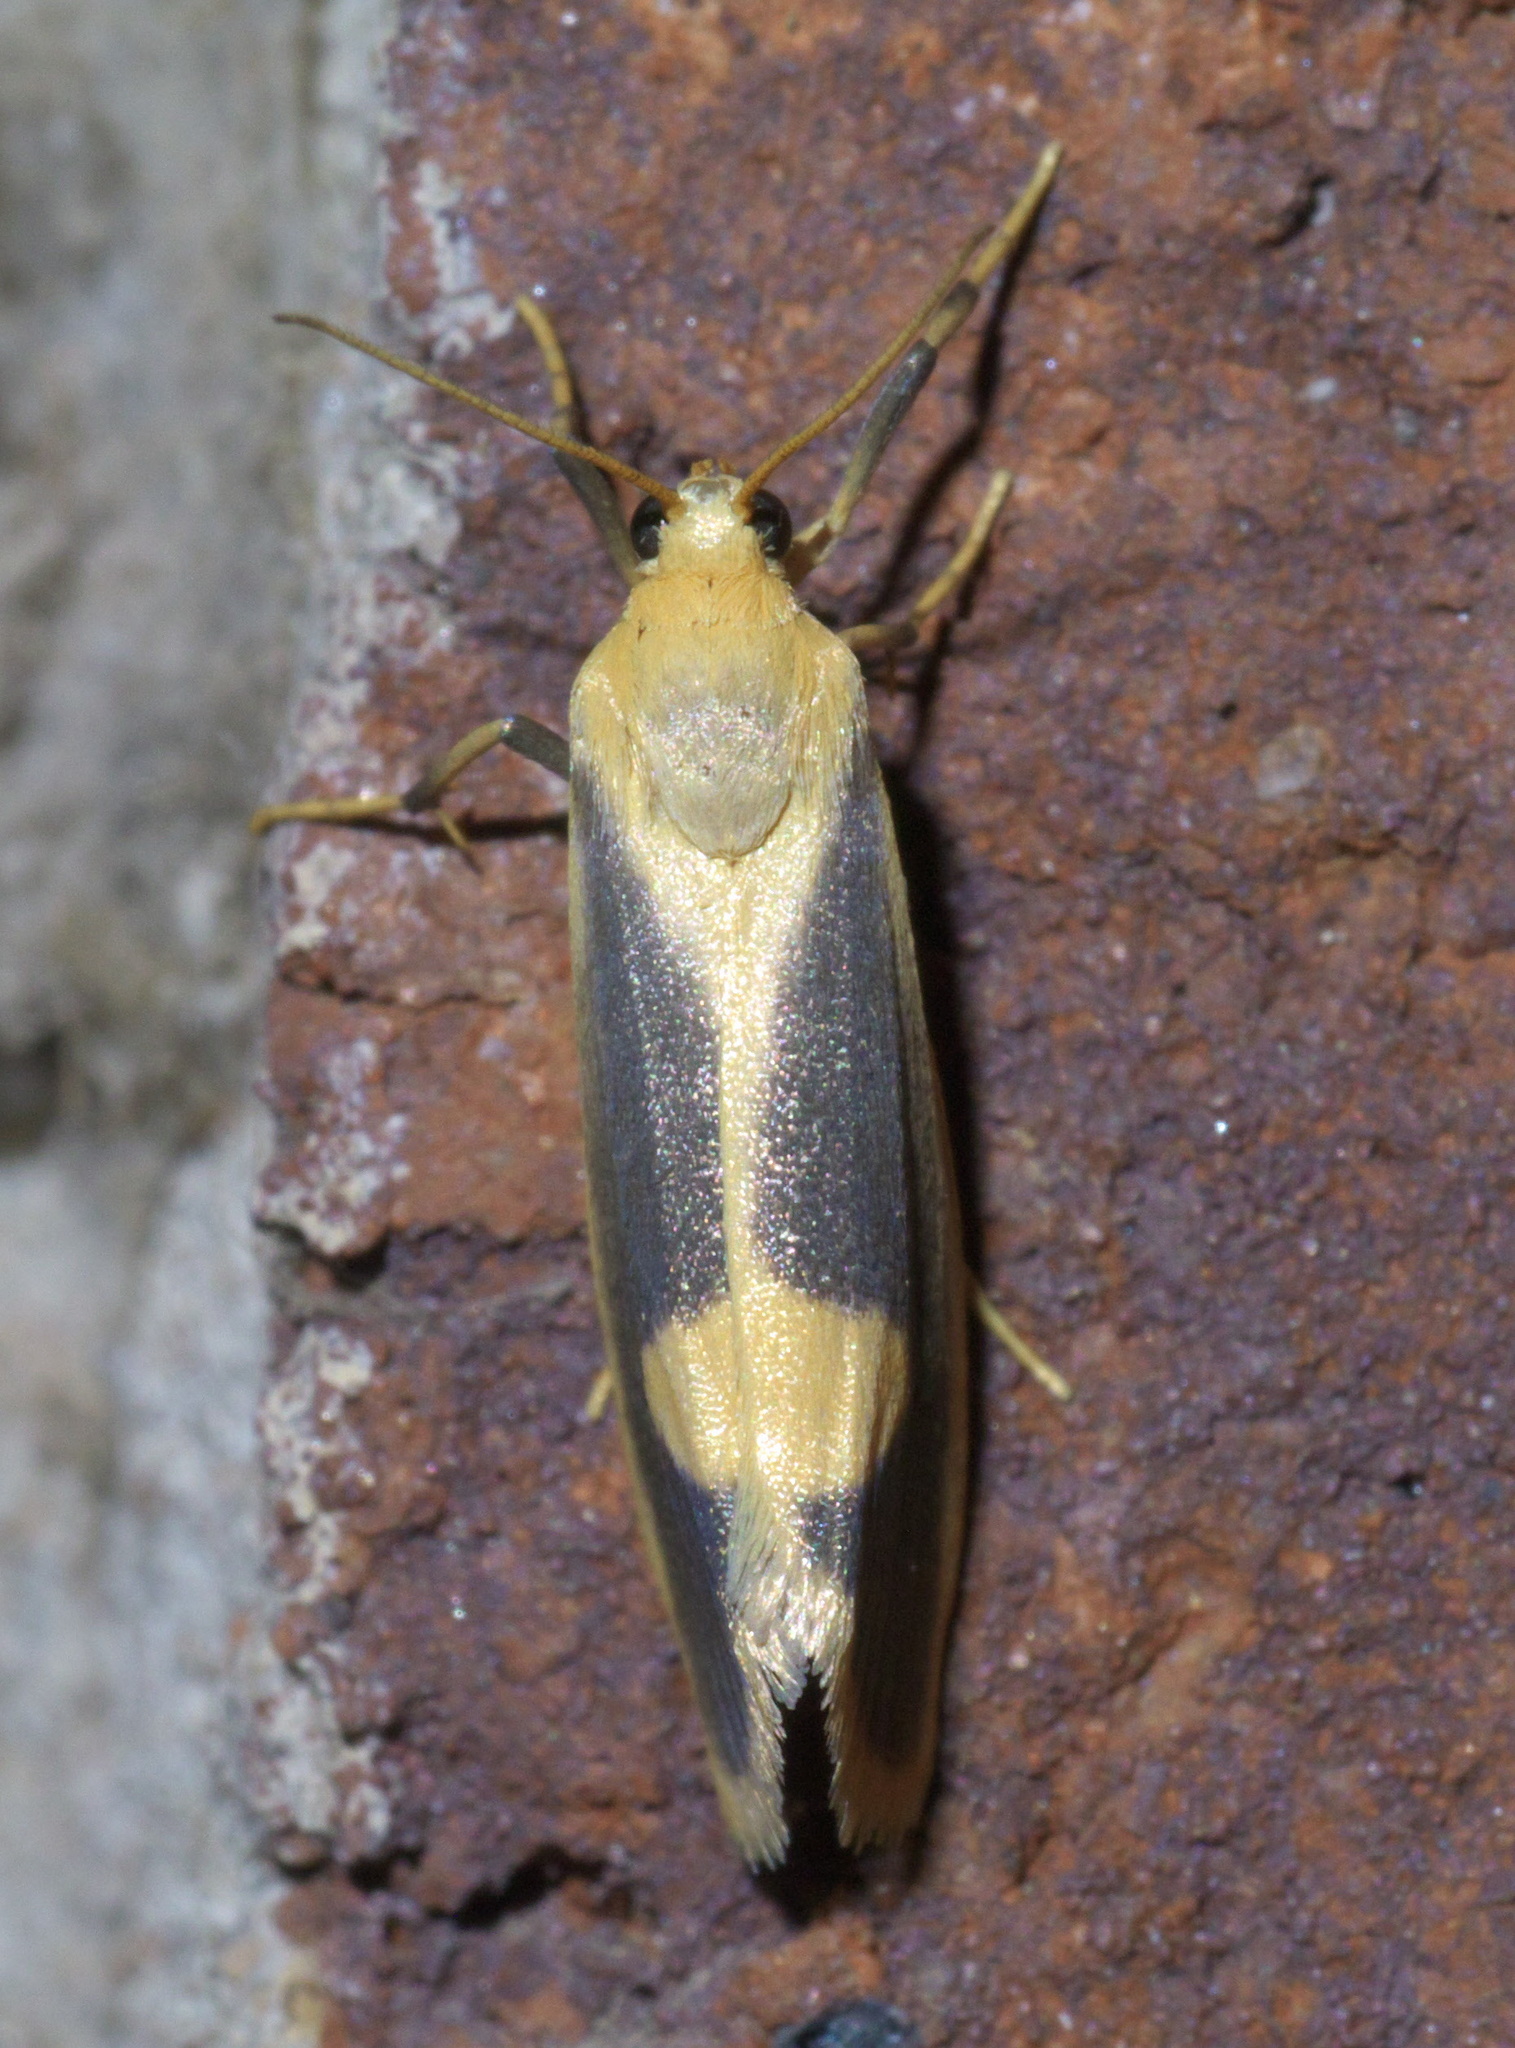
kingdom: Animalia
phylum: Arthropoda
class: Insecta
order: Lepidoptera
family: Erebidae
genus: Cisthene
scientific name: Cisthene plumbea
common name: Lead colored lichen moth
